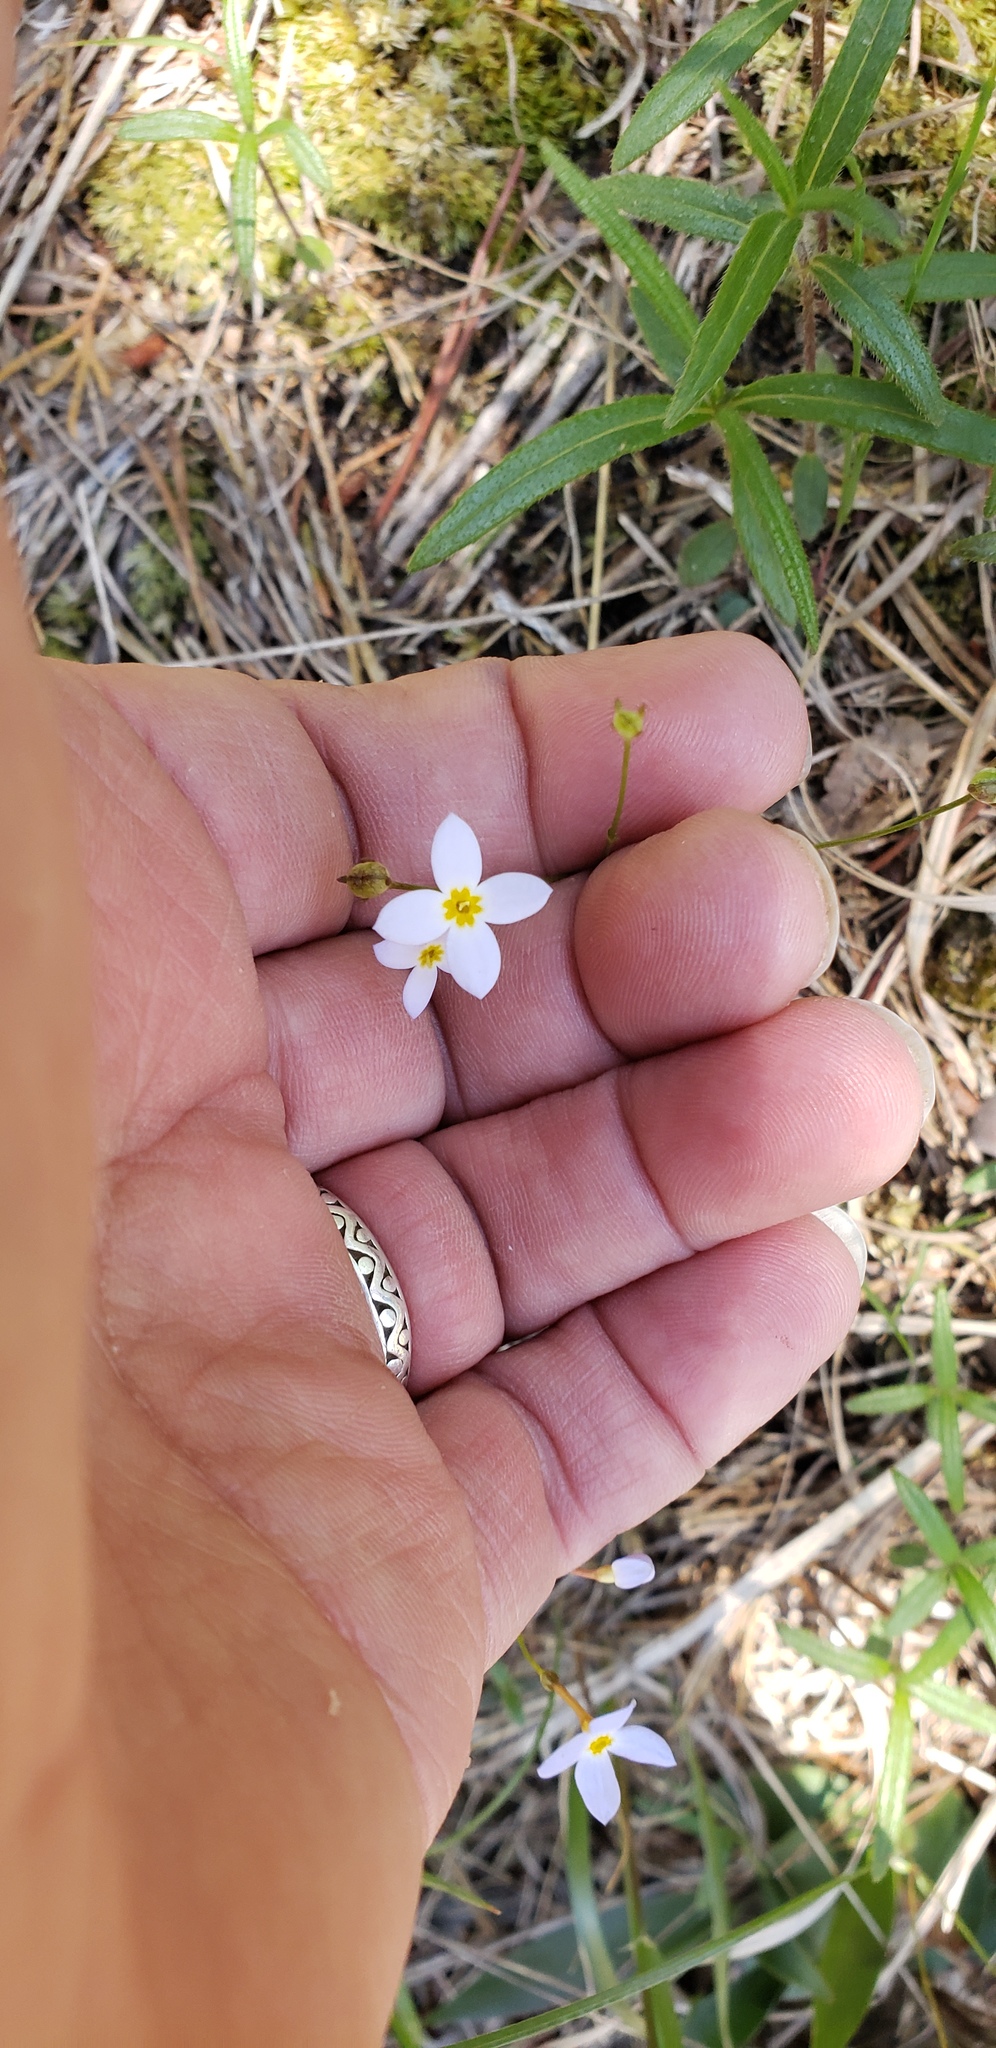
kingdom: Plantae
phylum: Tracheophyta
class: Magnoliopsida
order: Gentianales
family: Rubiaceae
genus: Houstonia
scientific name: Houstonia caerulea
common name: Bluets
